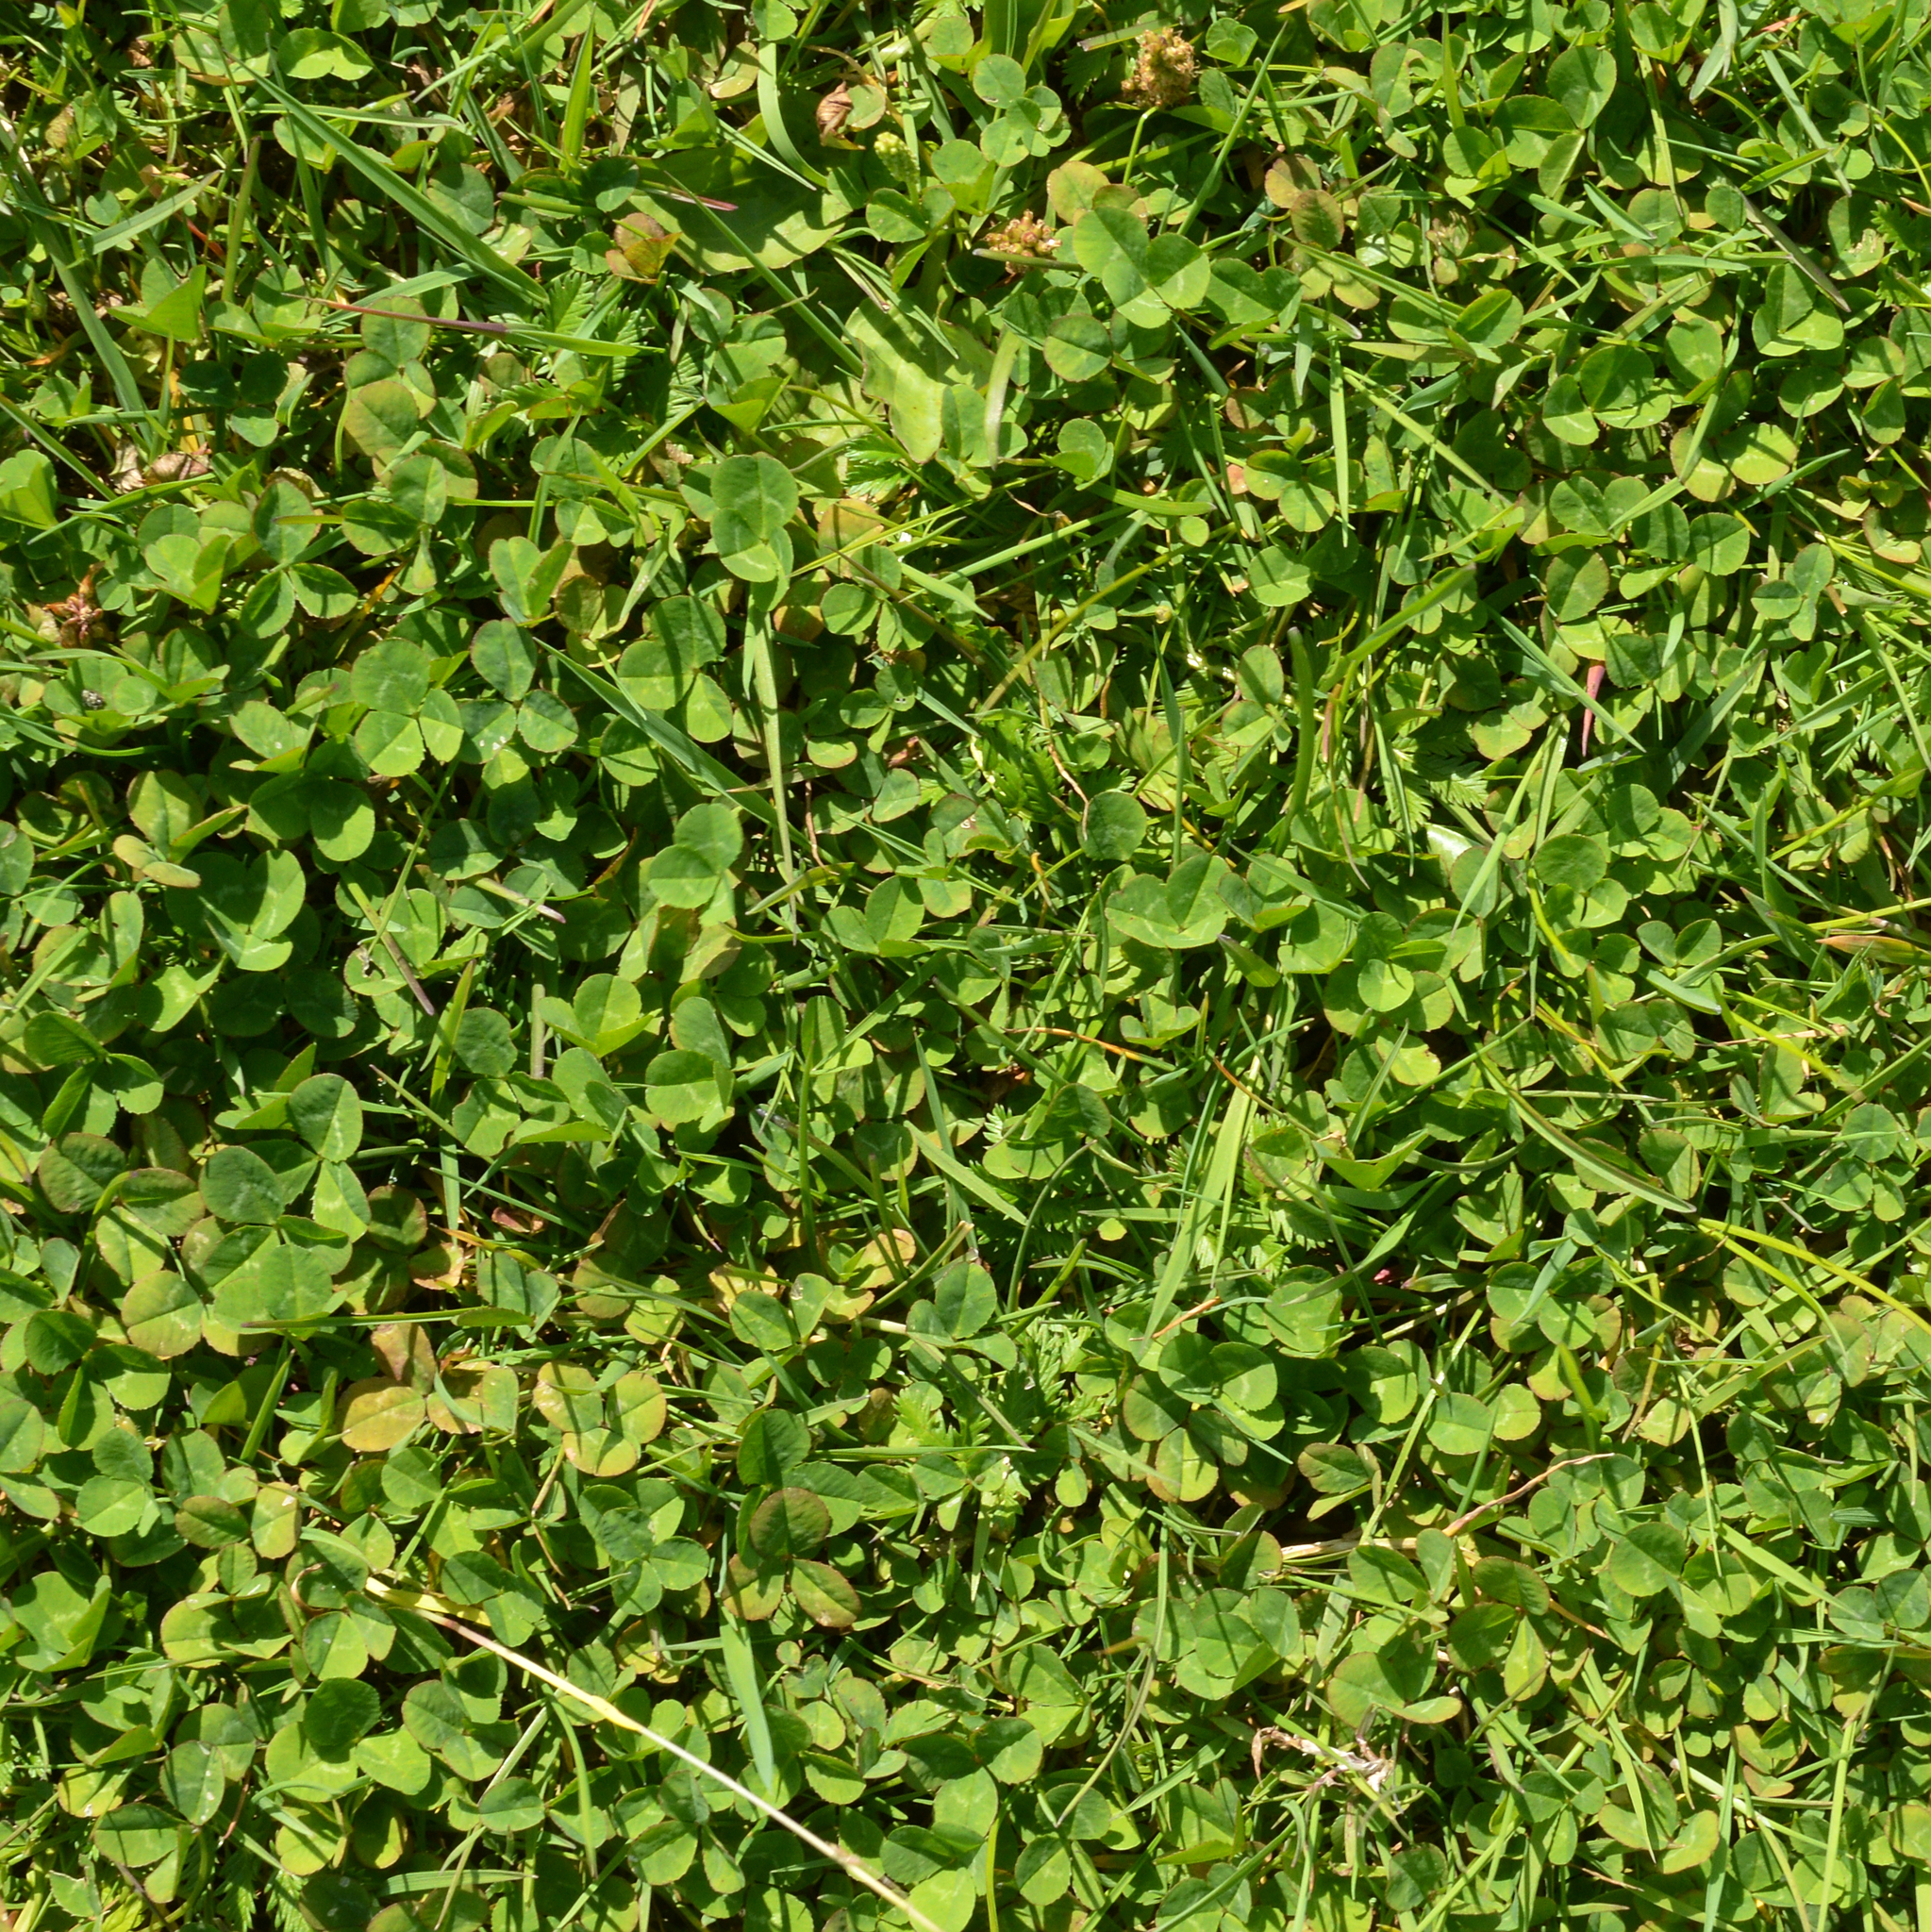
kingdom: Plantae
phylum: Tracheophyta
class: Magnoliopsida
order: Fabales
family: Fabaceae
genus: Trifolium
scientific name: Trifolium repens
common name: White clover
